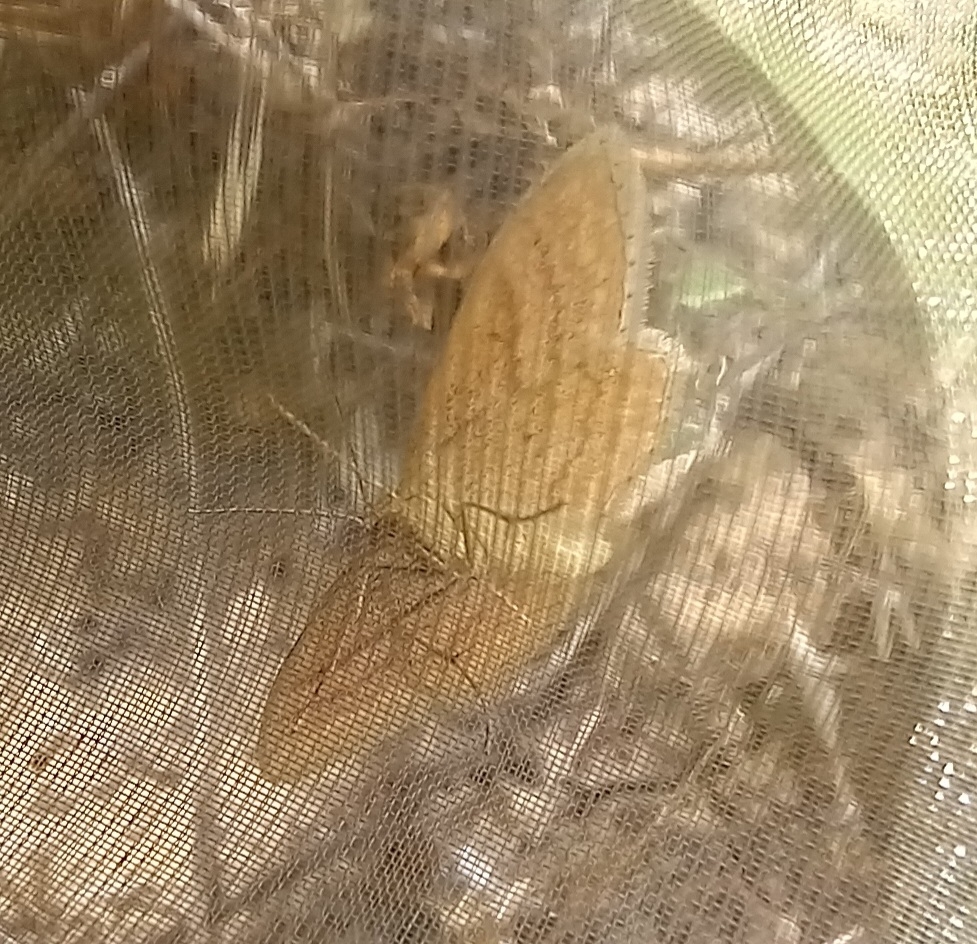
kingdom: Animalia
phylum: Arthropoda
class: Insecta
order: Lepidoptera
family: Geometridae
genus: Idaea
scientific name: Idaea ochrata
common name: Bright wave
